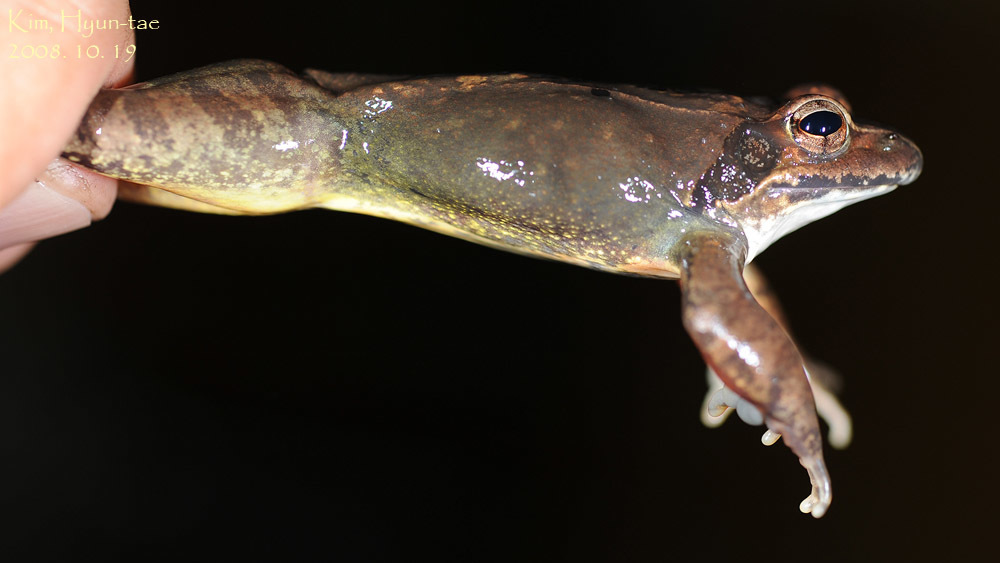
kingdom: Animalia
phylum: Chordata
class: Amphibia
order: Anura
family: Ranidae
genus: Rana
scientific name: Rana uenoi
